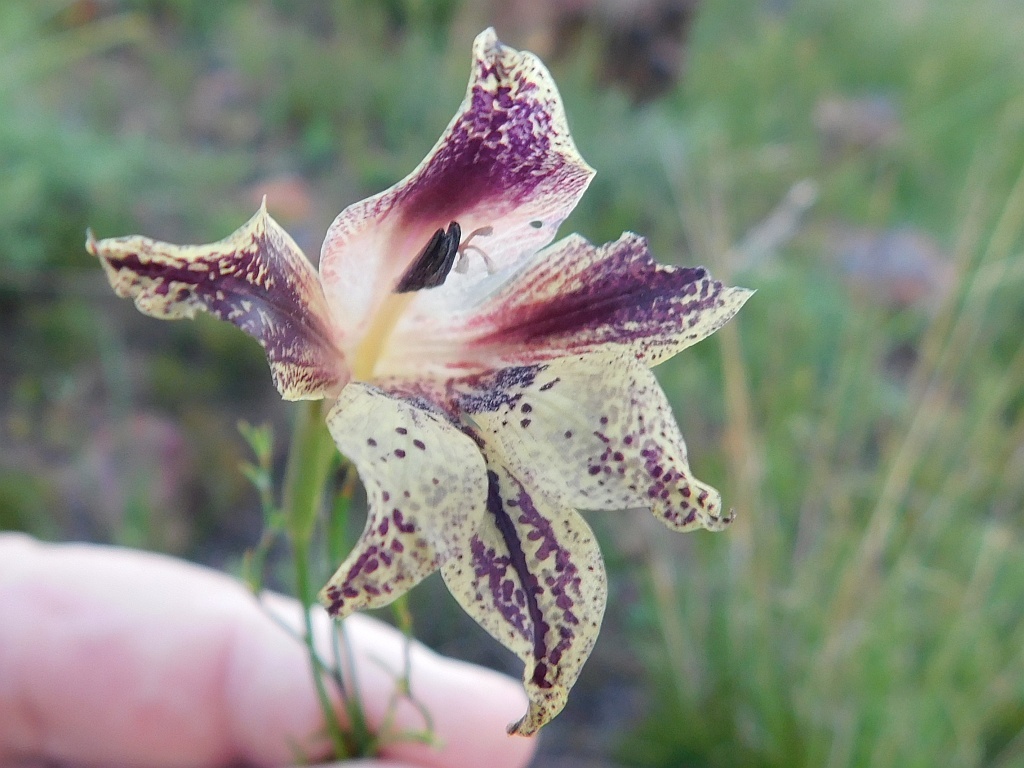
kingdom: Plantae
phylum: Tracheophyta
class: Liliopsida
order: Asparagales
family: Iridaceae
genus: Gladiolus
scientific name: Gladiolus maculatus
